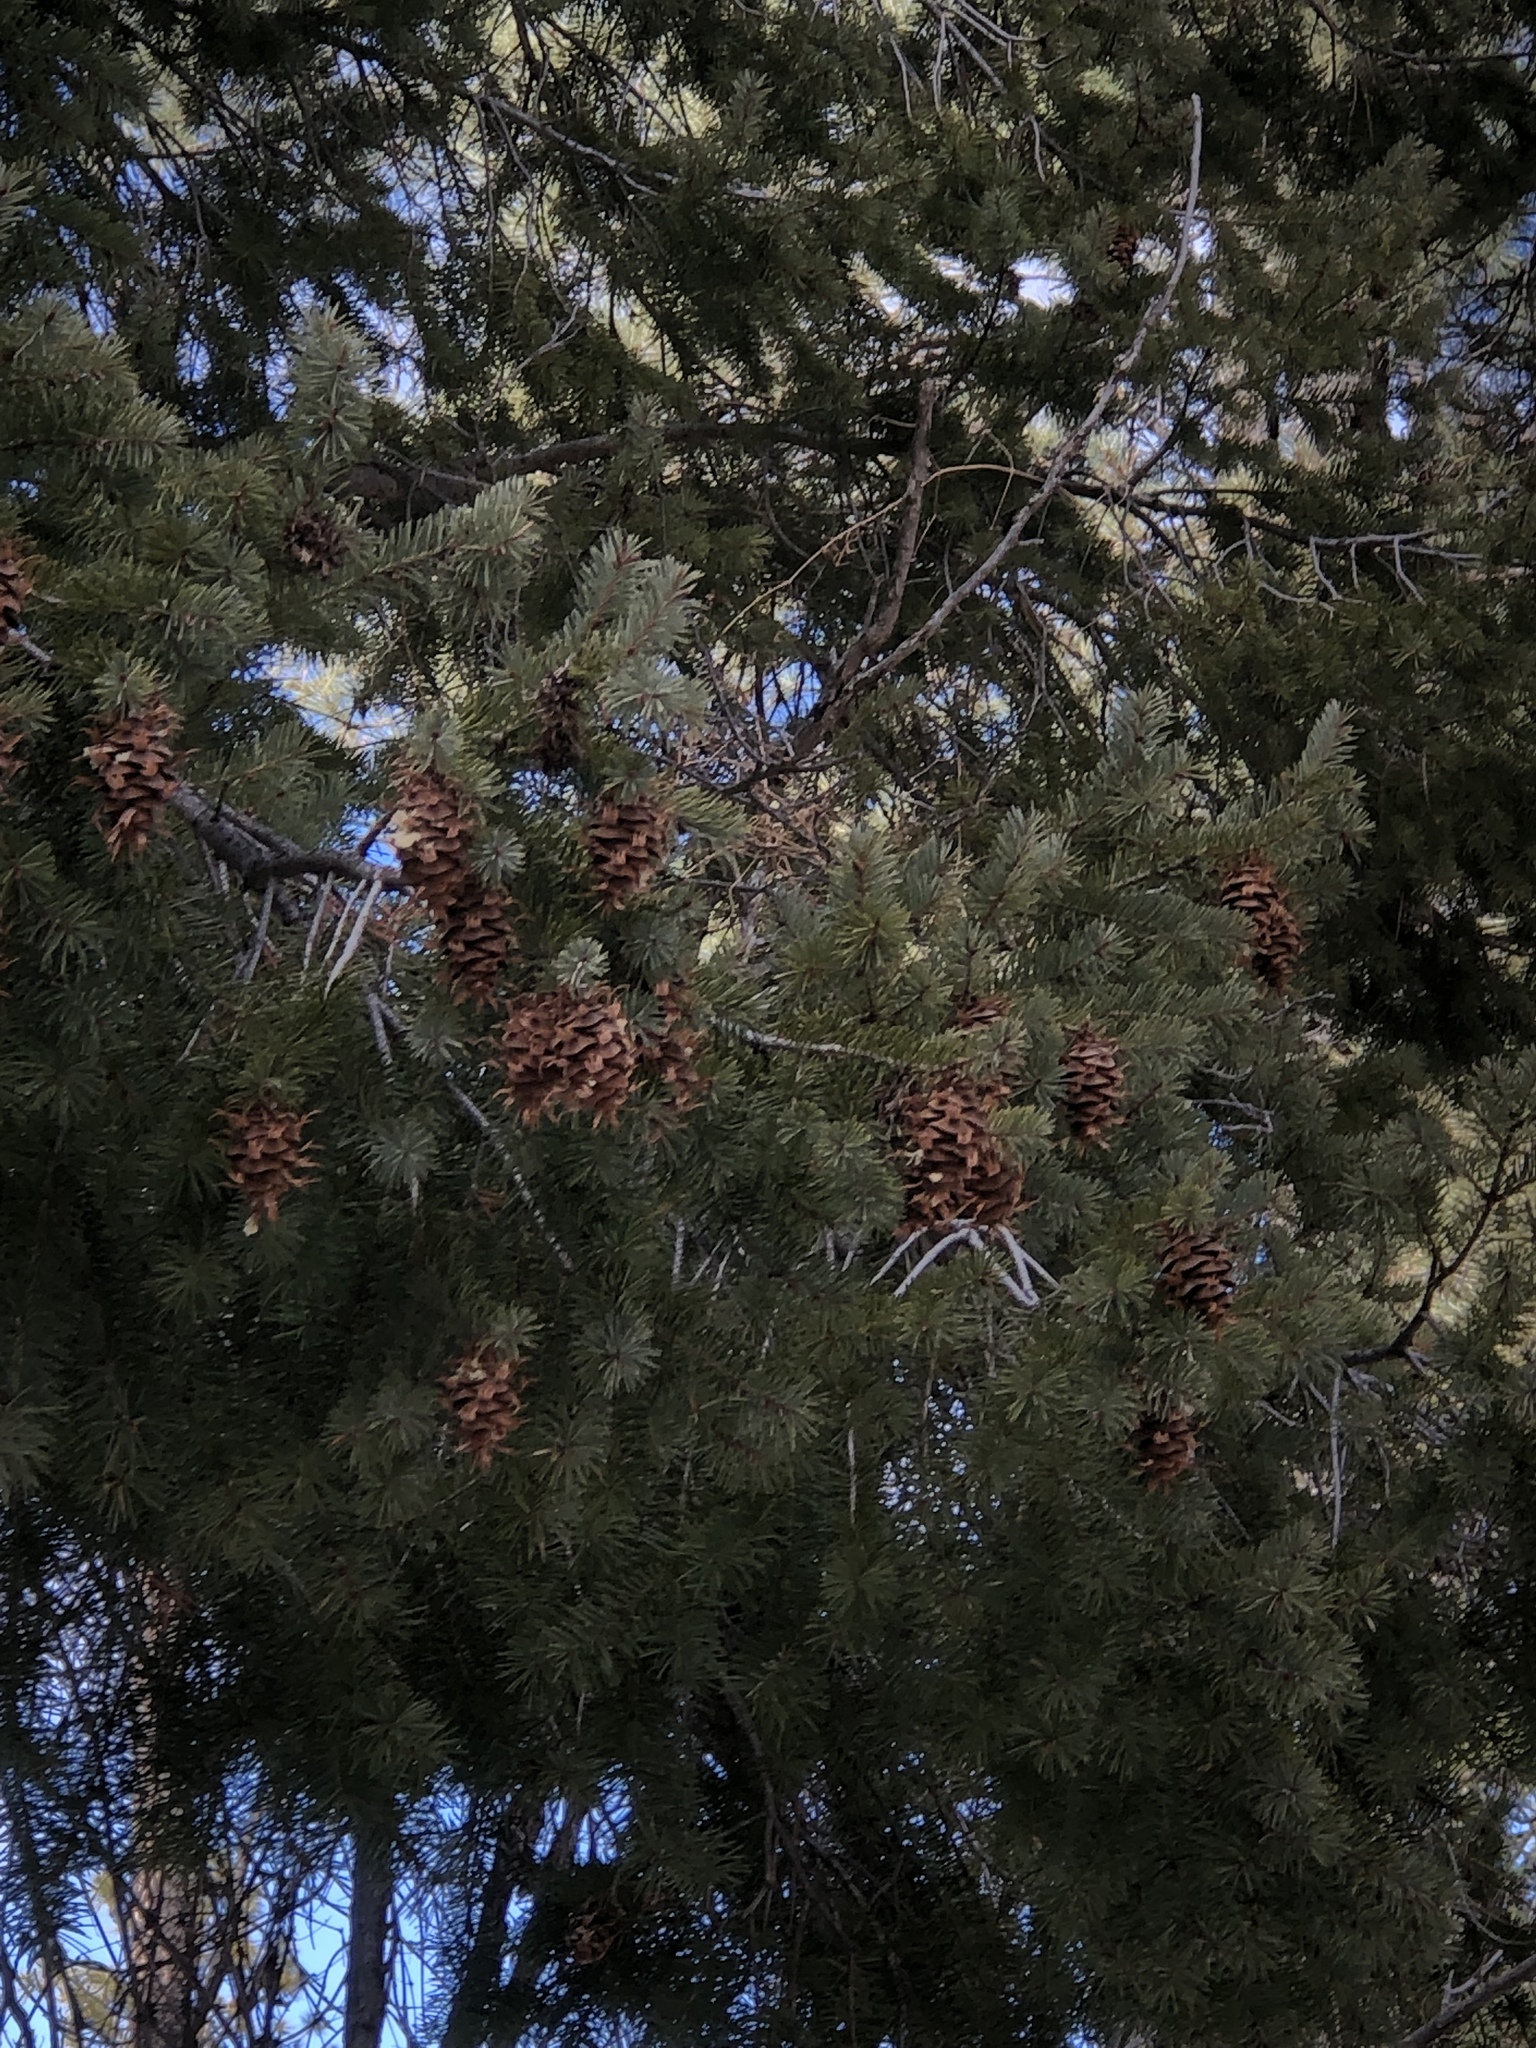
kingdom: Plantae
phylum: Tracheophyta
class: Pinopsida
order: Pinales
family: Pinaceae
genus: Pseudotsuga
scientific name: Pseudotsuga menziesii
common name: Douglas fir
